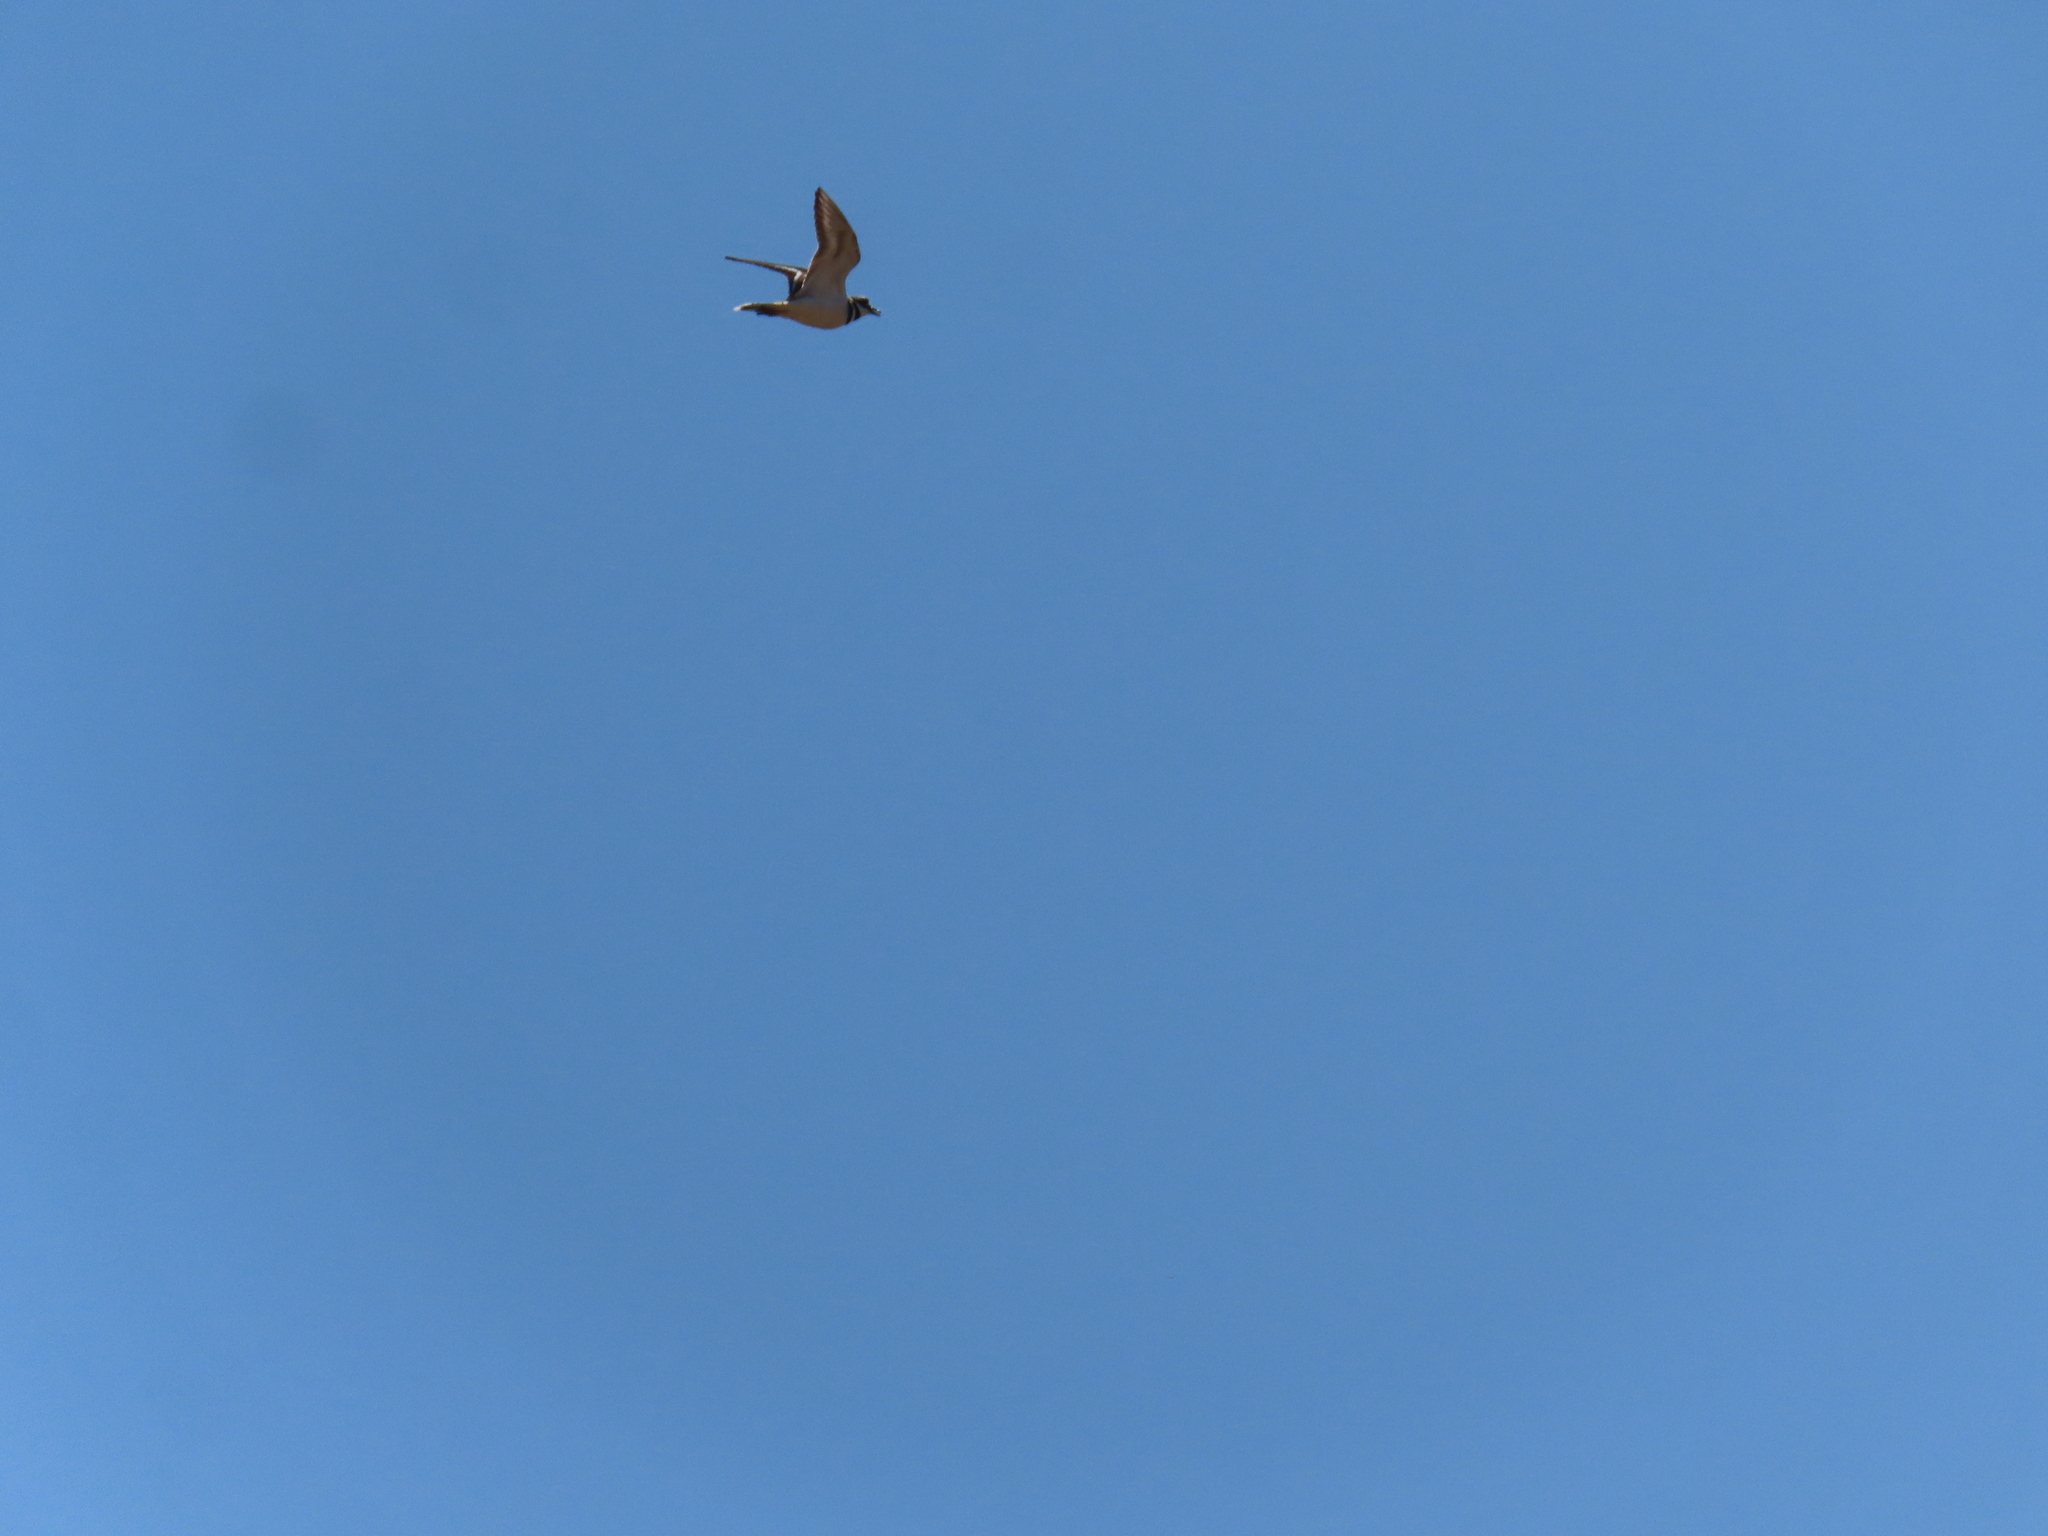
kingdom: Animalia
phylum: Chordata
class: Aves
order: Charadriiformes
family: Charadriidae
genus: Charadrius
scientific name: Charadrius vociferus
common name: Killdeer
